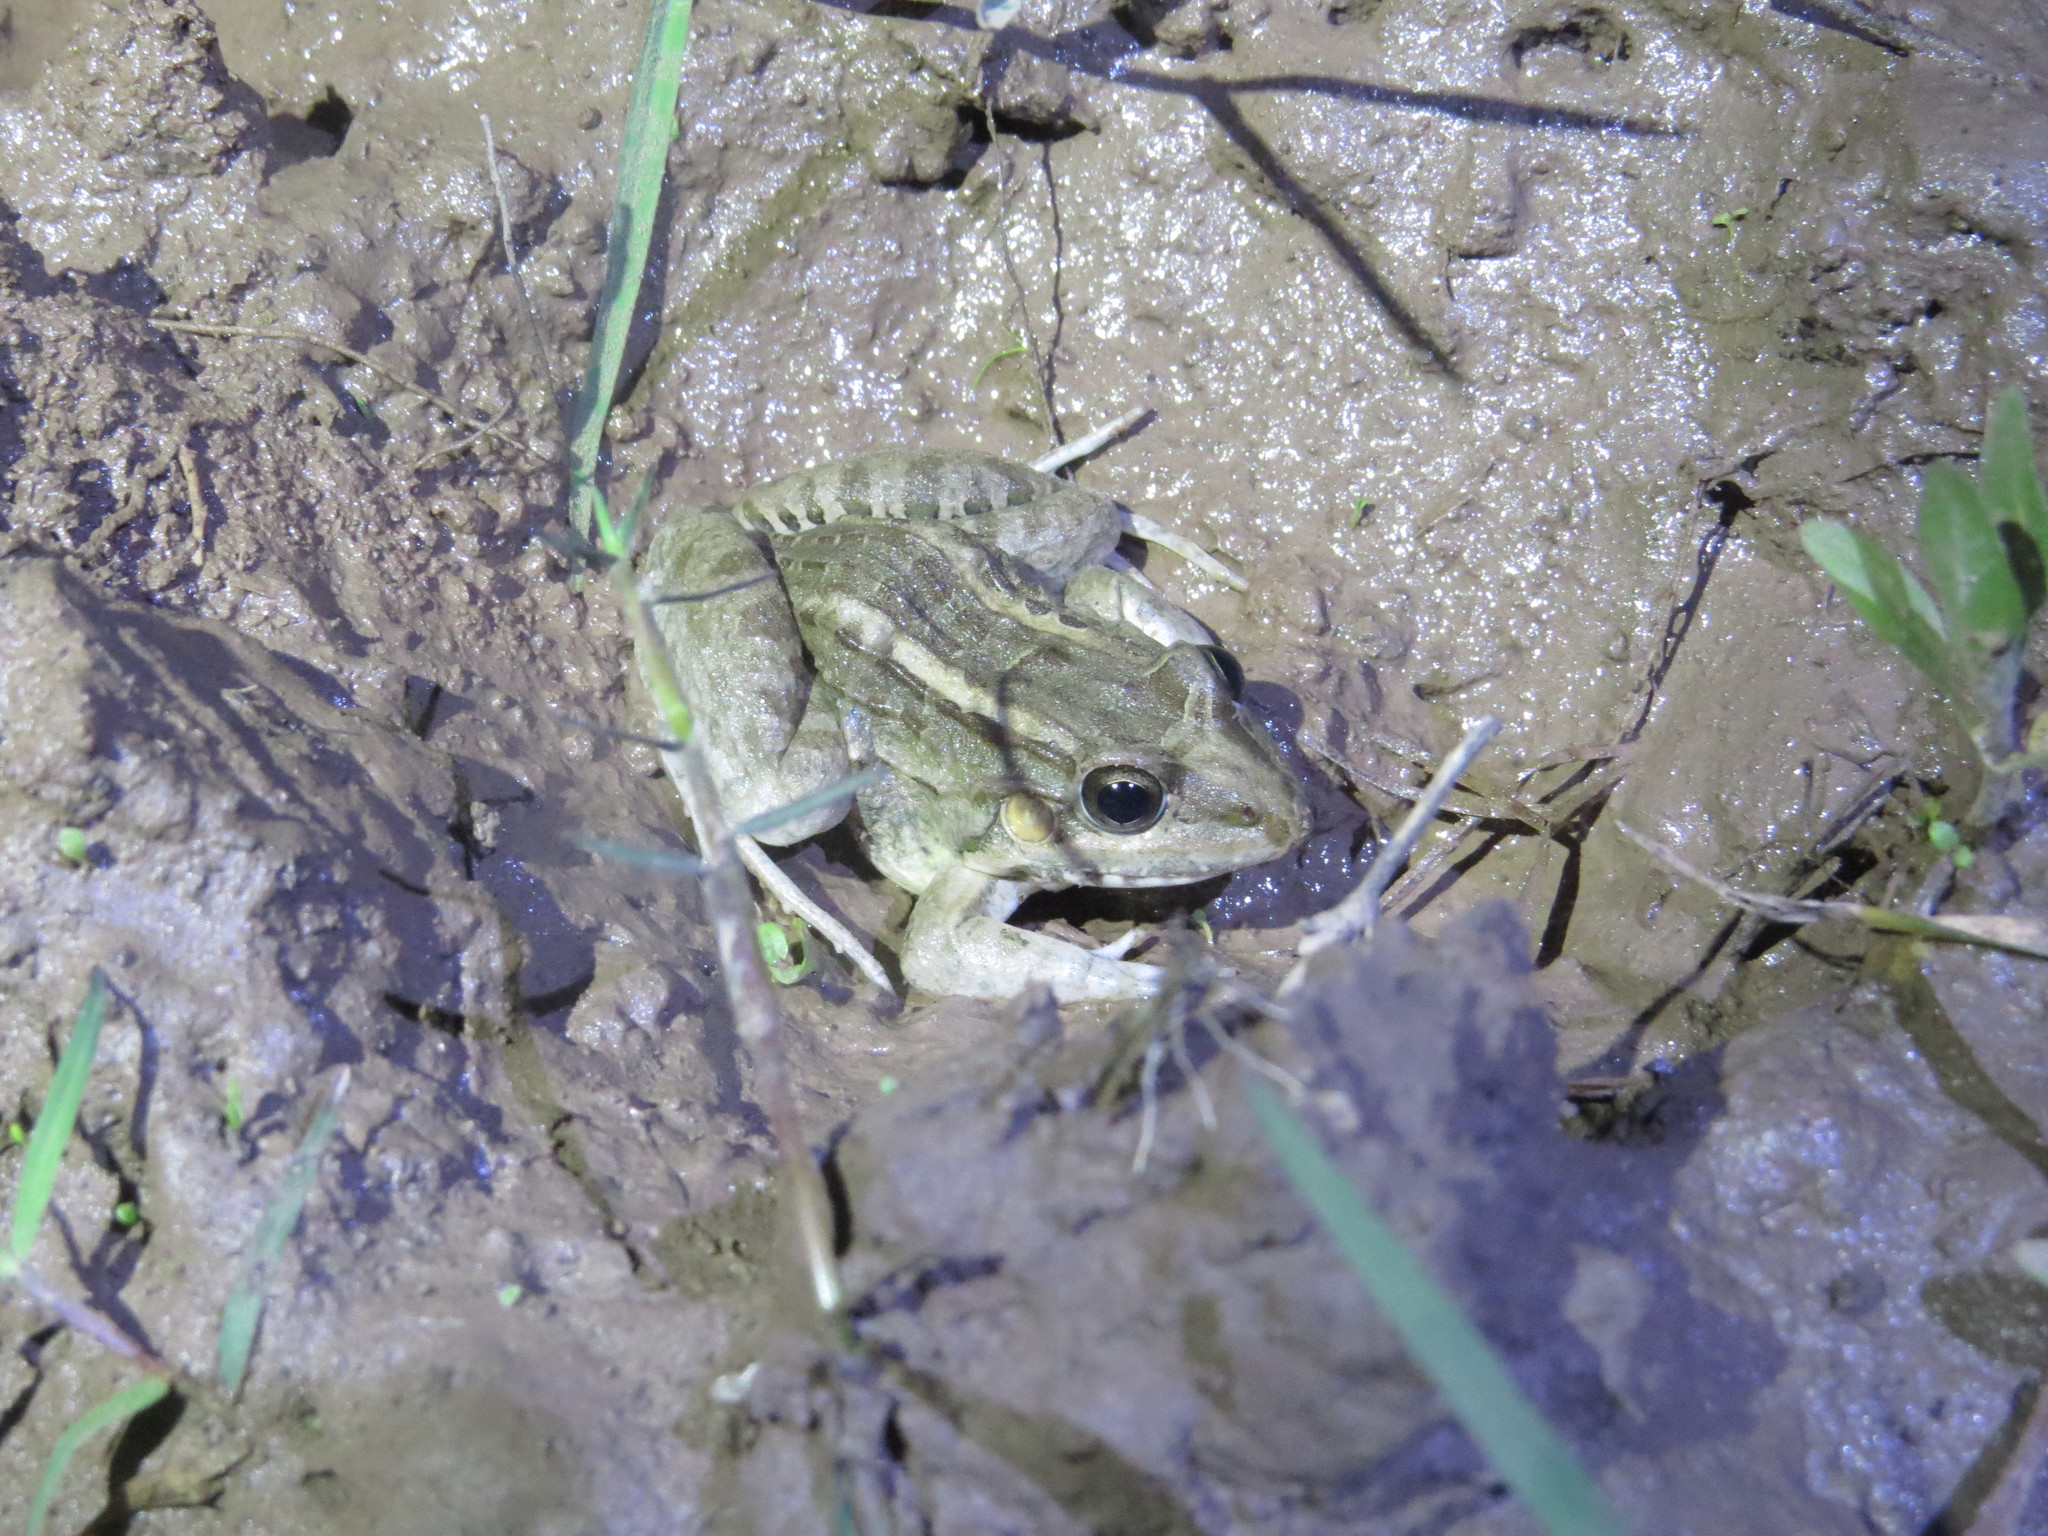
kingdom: Animalia
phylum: Chordata
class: Amphibia
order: Anura
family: Leptodactylidae
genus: Leptodactylus
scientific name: Leptodactylus macrosternum
